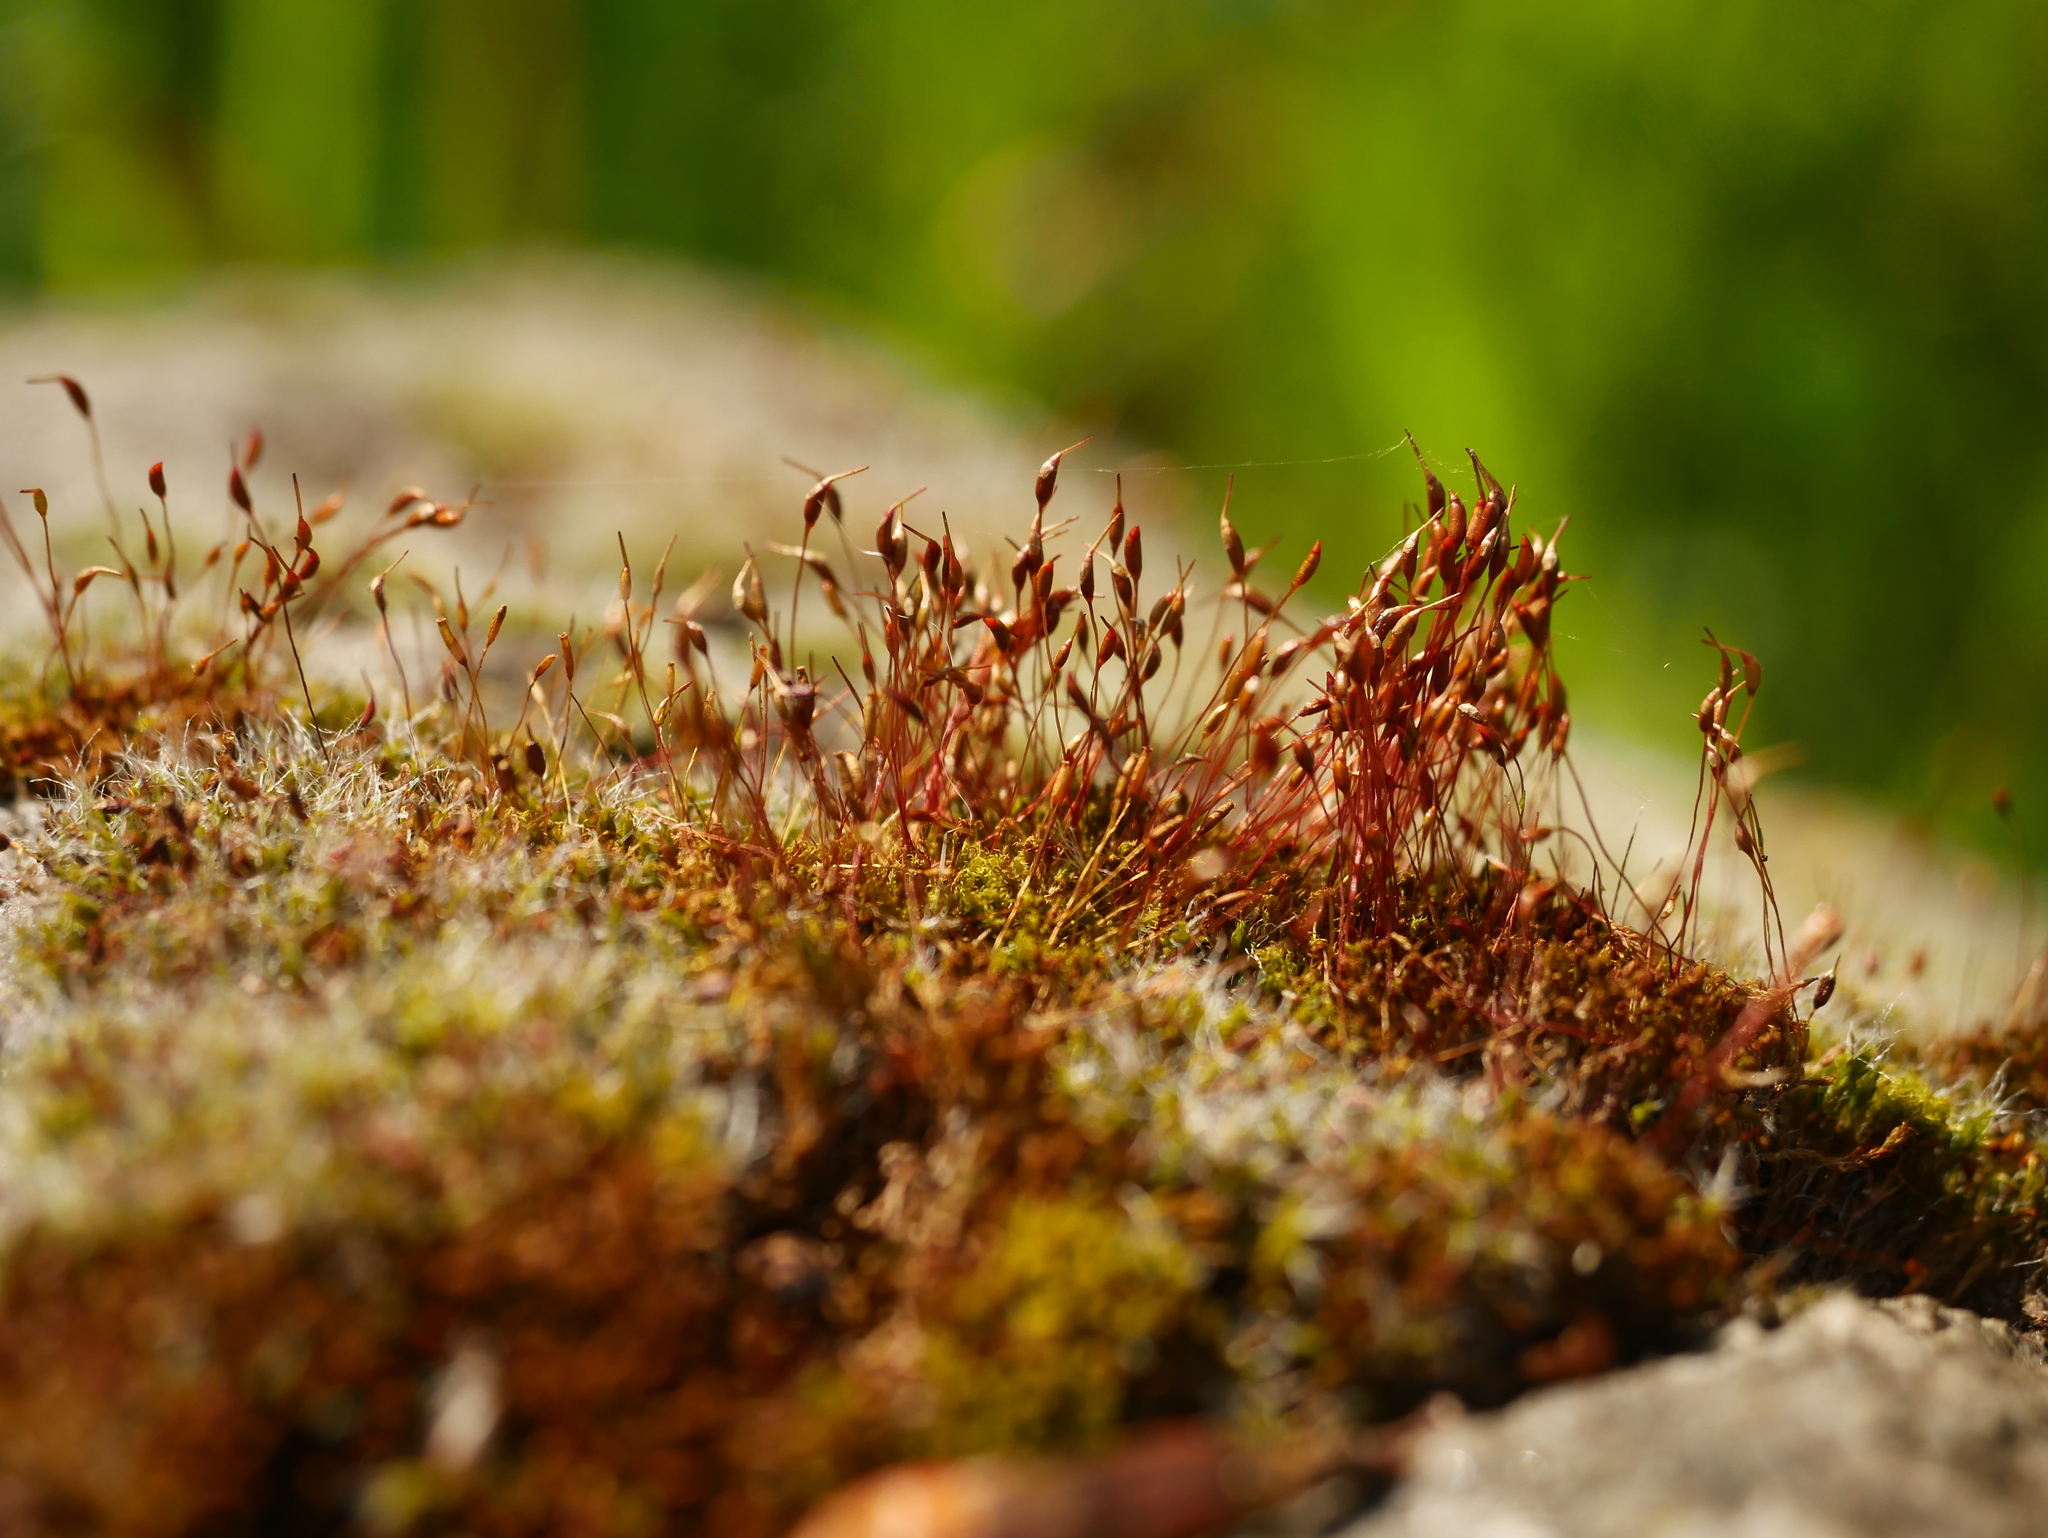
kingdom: Plantae
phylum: Bryophyta
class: Bryopsida
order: Pottiales
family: Pottiaceae
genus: Tortula
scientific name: Tortula muralis
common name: Wall screw-moss
